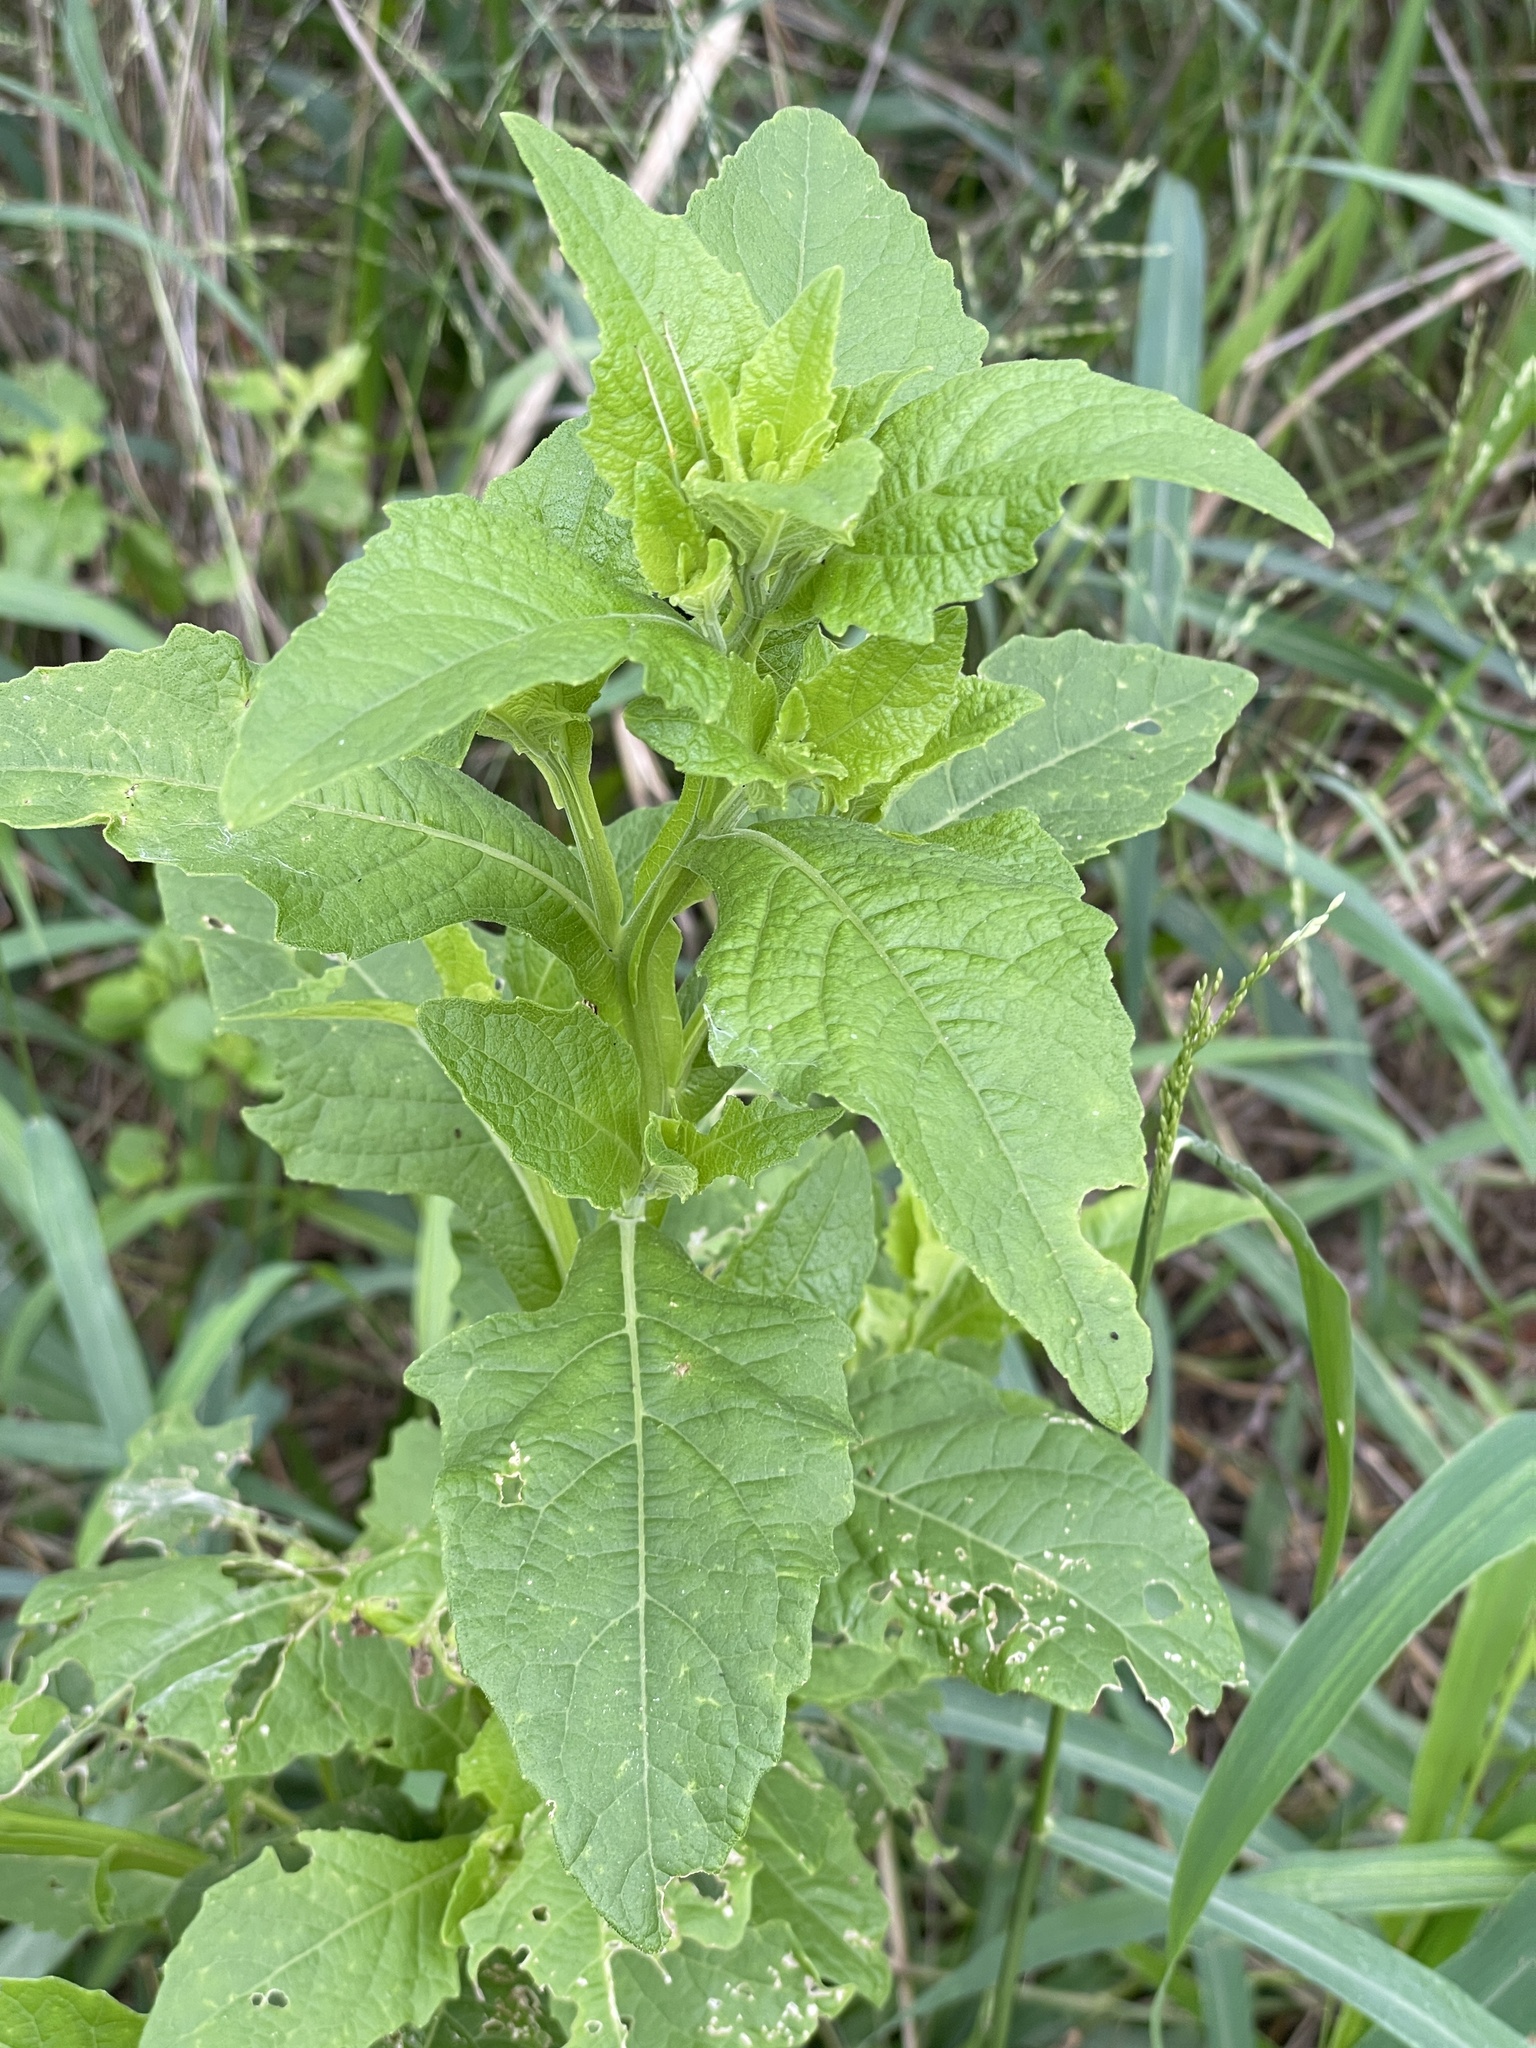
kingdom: Plantae
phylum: Tracheophyta
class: Magnoliopsida
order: Asterales
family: Asteraceae
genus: Verbesina
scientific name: Verbesina microptera
